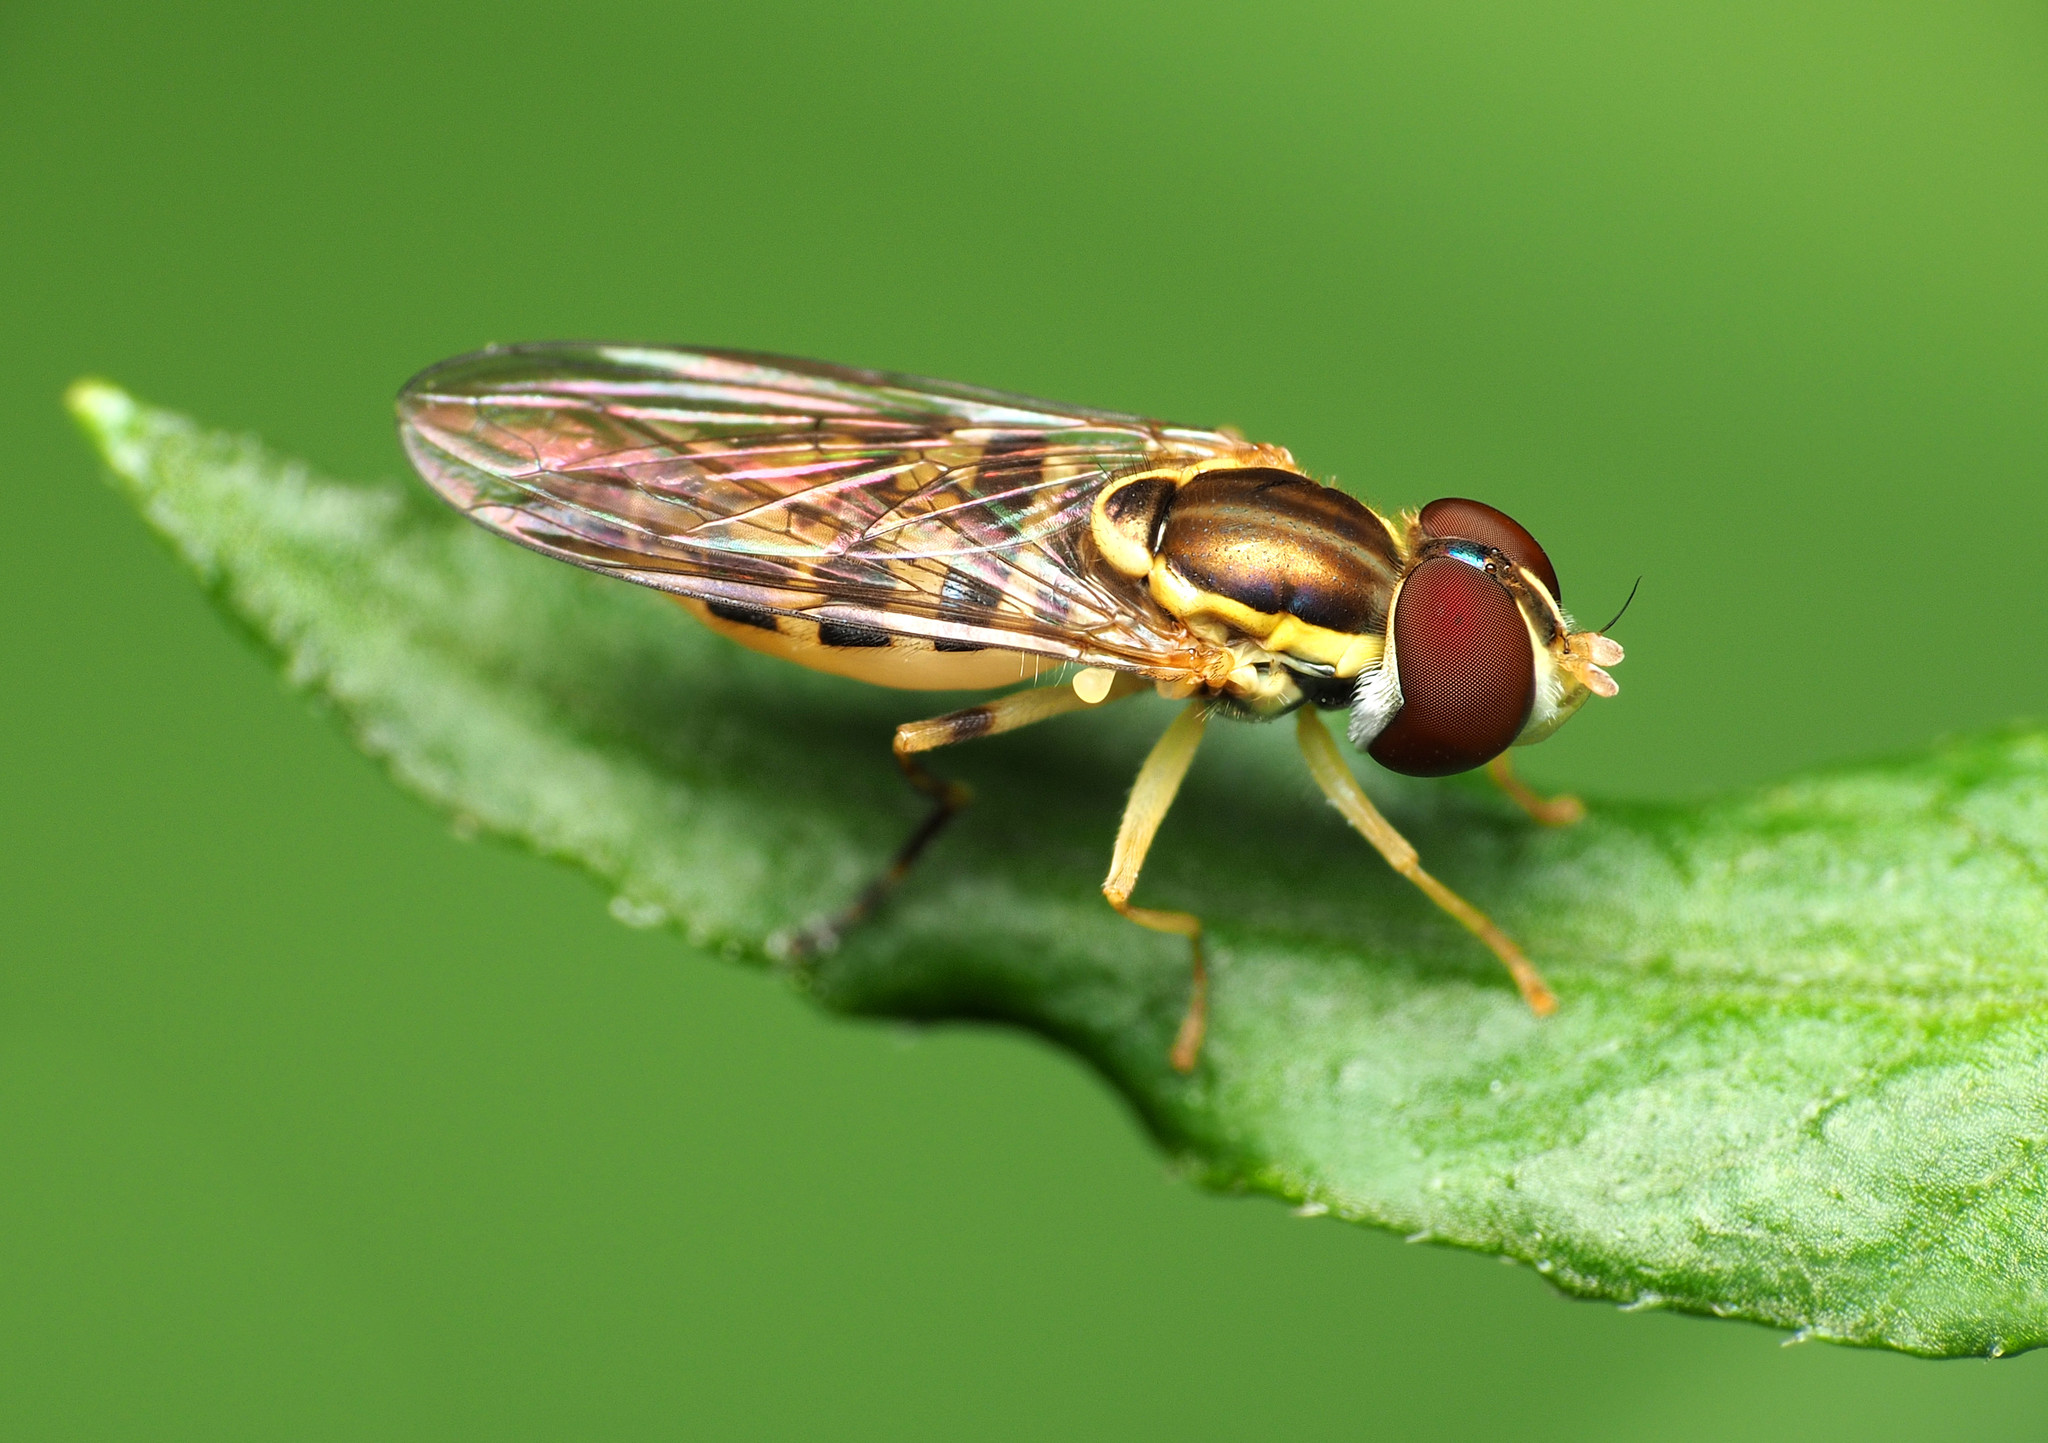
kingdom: Animalia
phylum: Arthropoda
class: Insecta
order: Diptera
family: Syrphidae
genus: Toxomerus
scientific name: Toxomerus geminatus
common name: Eastern calligrapher
